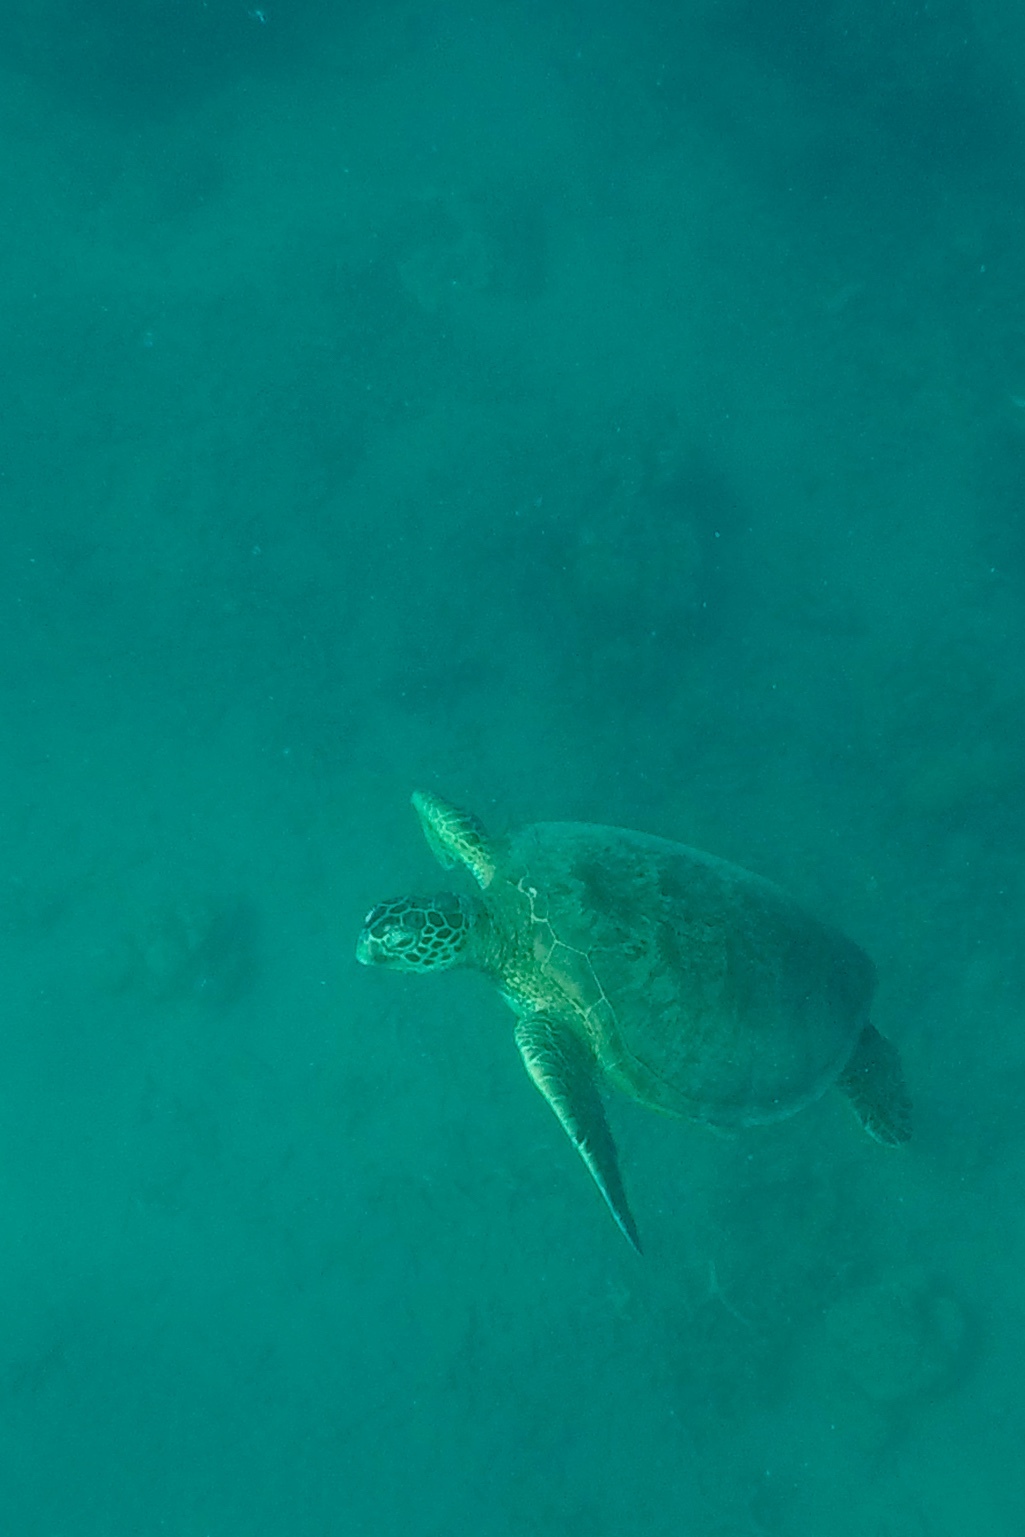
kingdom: Animalia
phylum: Chordata
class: Testudines
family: Cheloniidae
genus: Chelonia
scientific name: Chelonia mydas
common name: Green turtle
